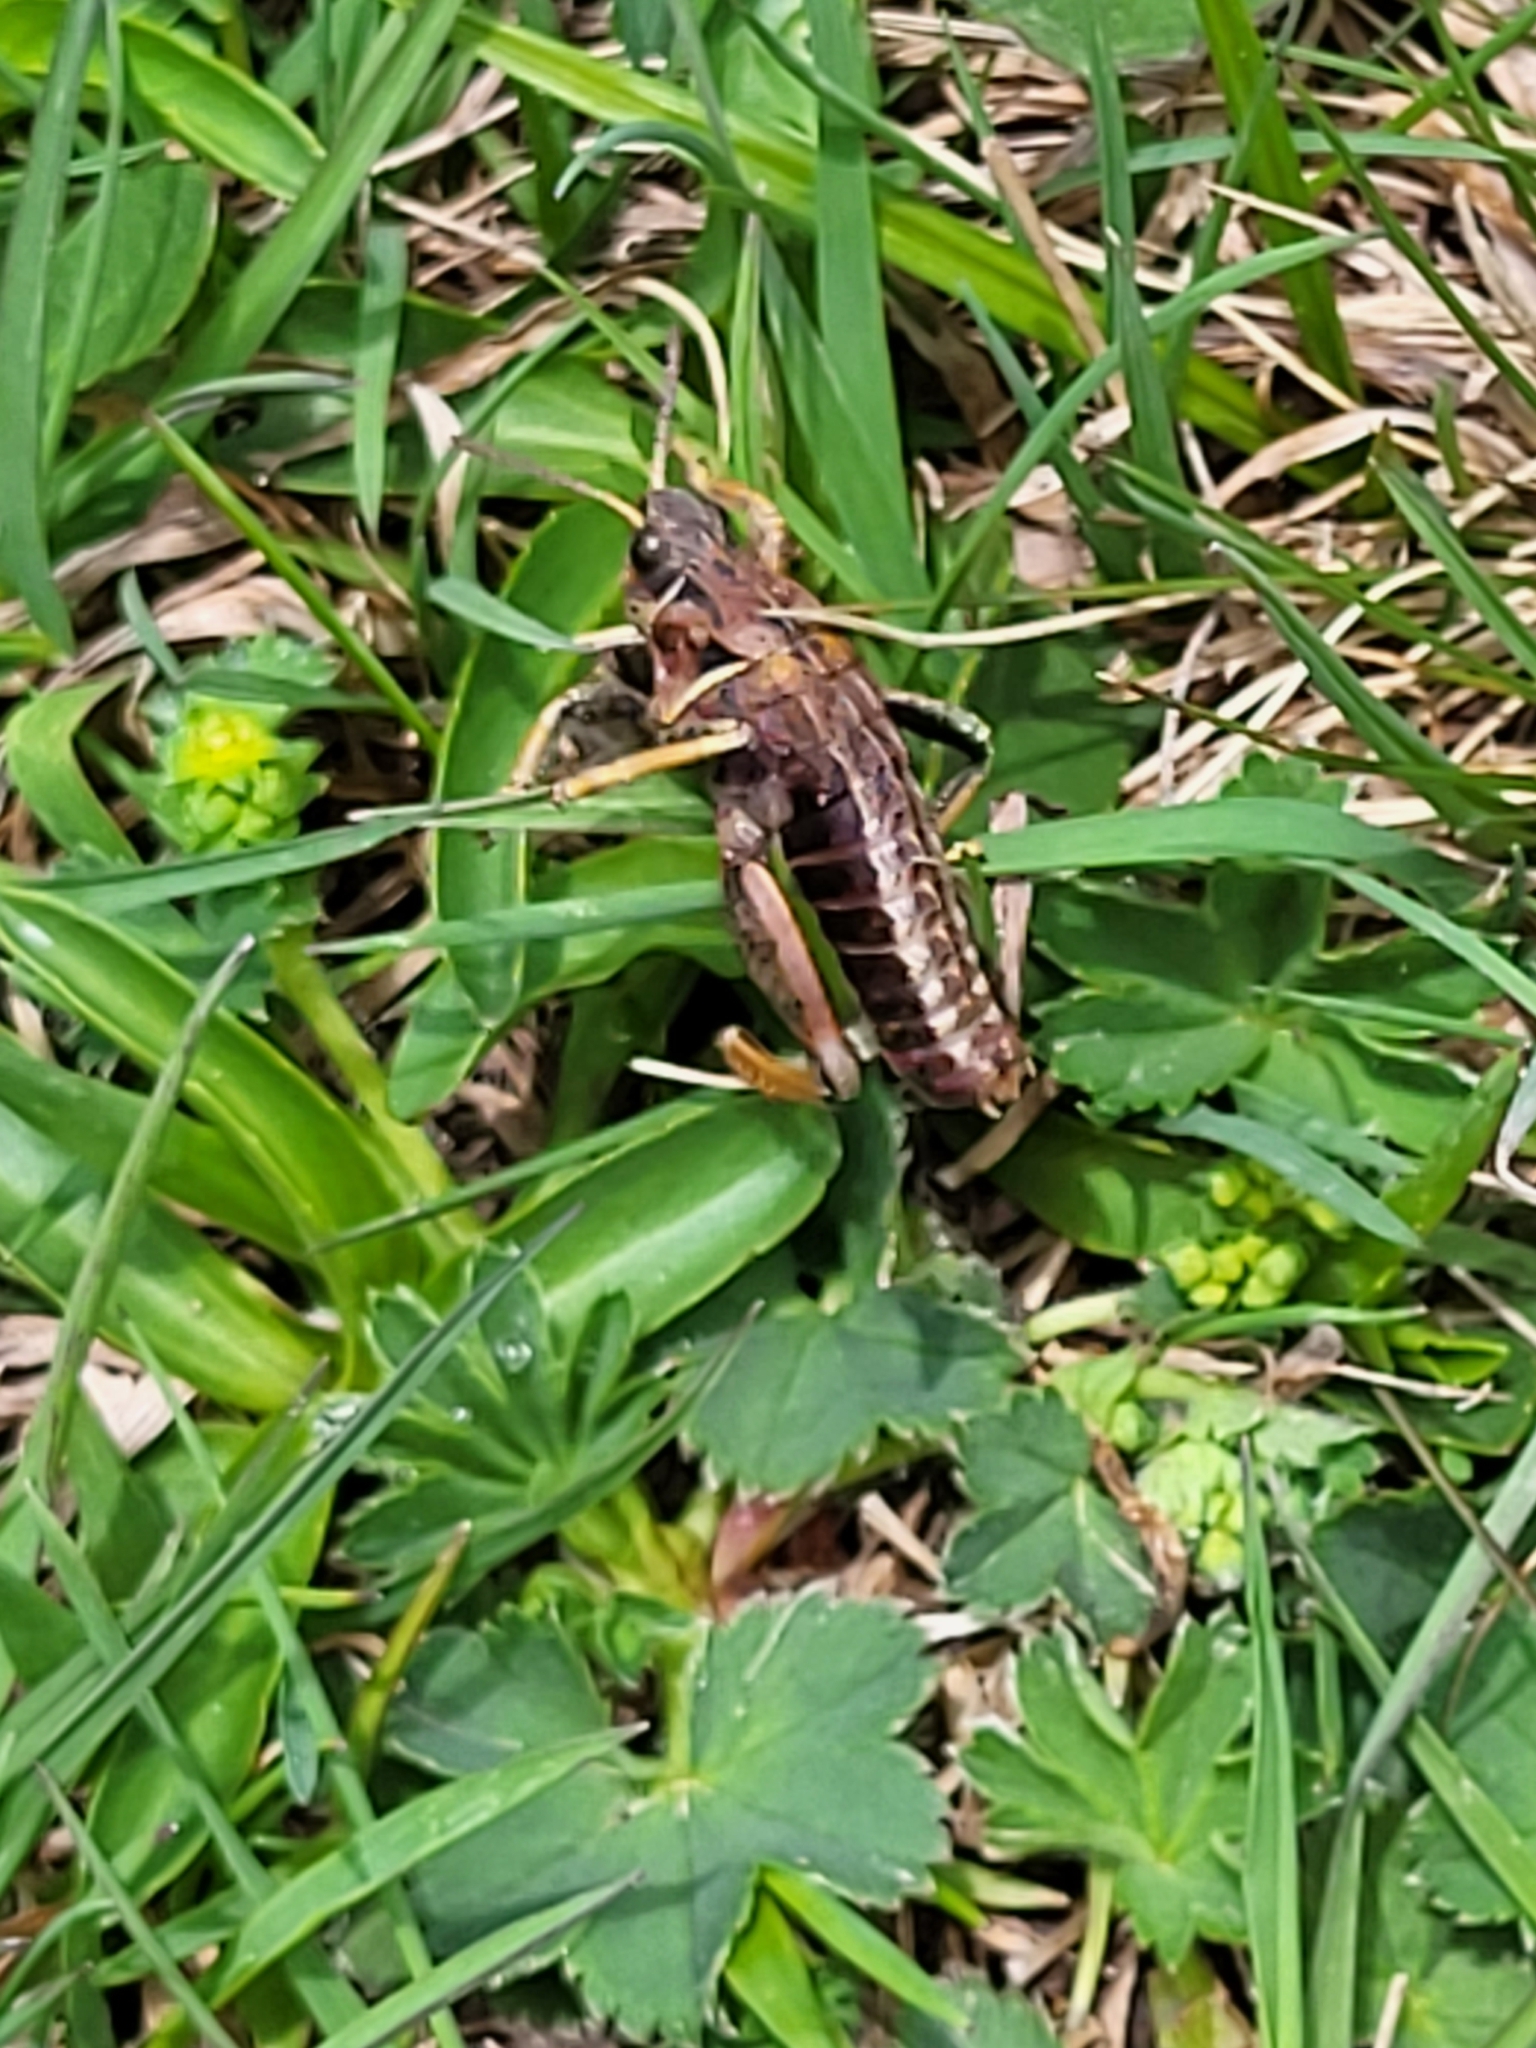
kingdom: Animalia
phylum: Arthropoda
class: Insecta
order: Orthoptera
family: Pamphagidae
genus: Nocarodes
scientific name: Nocarodes serricollis
